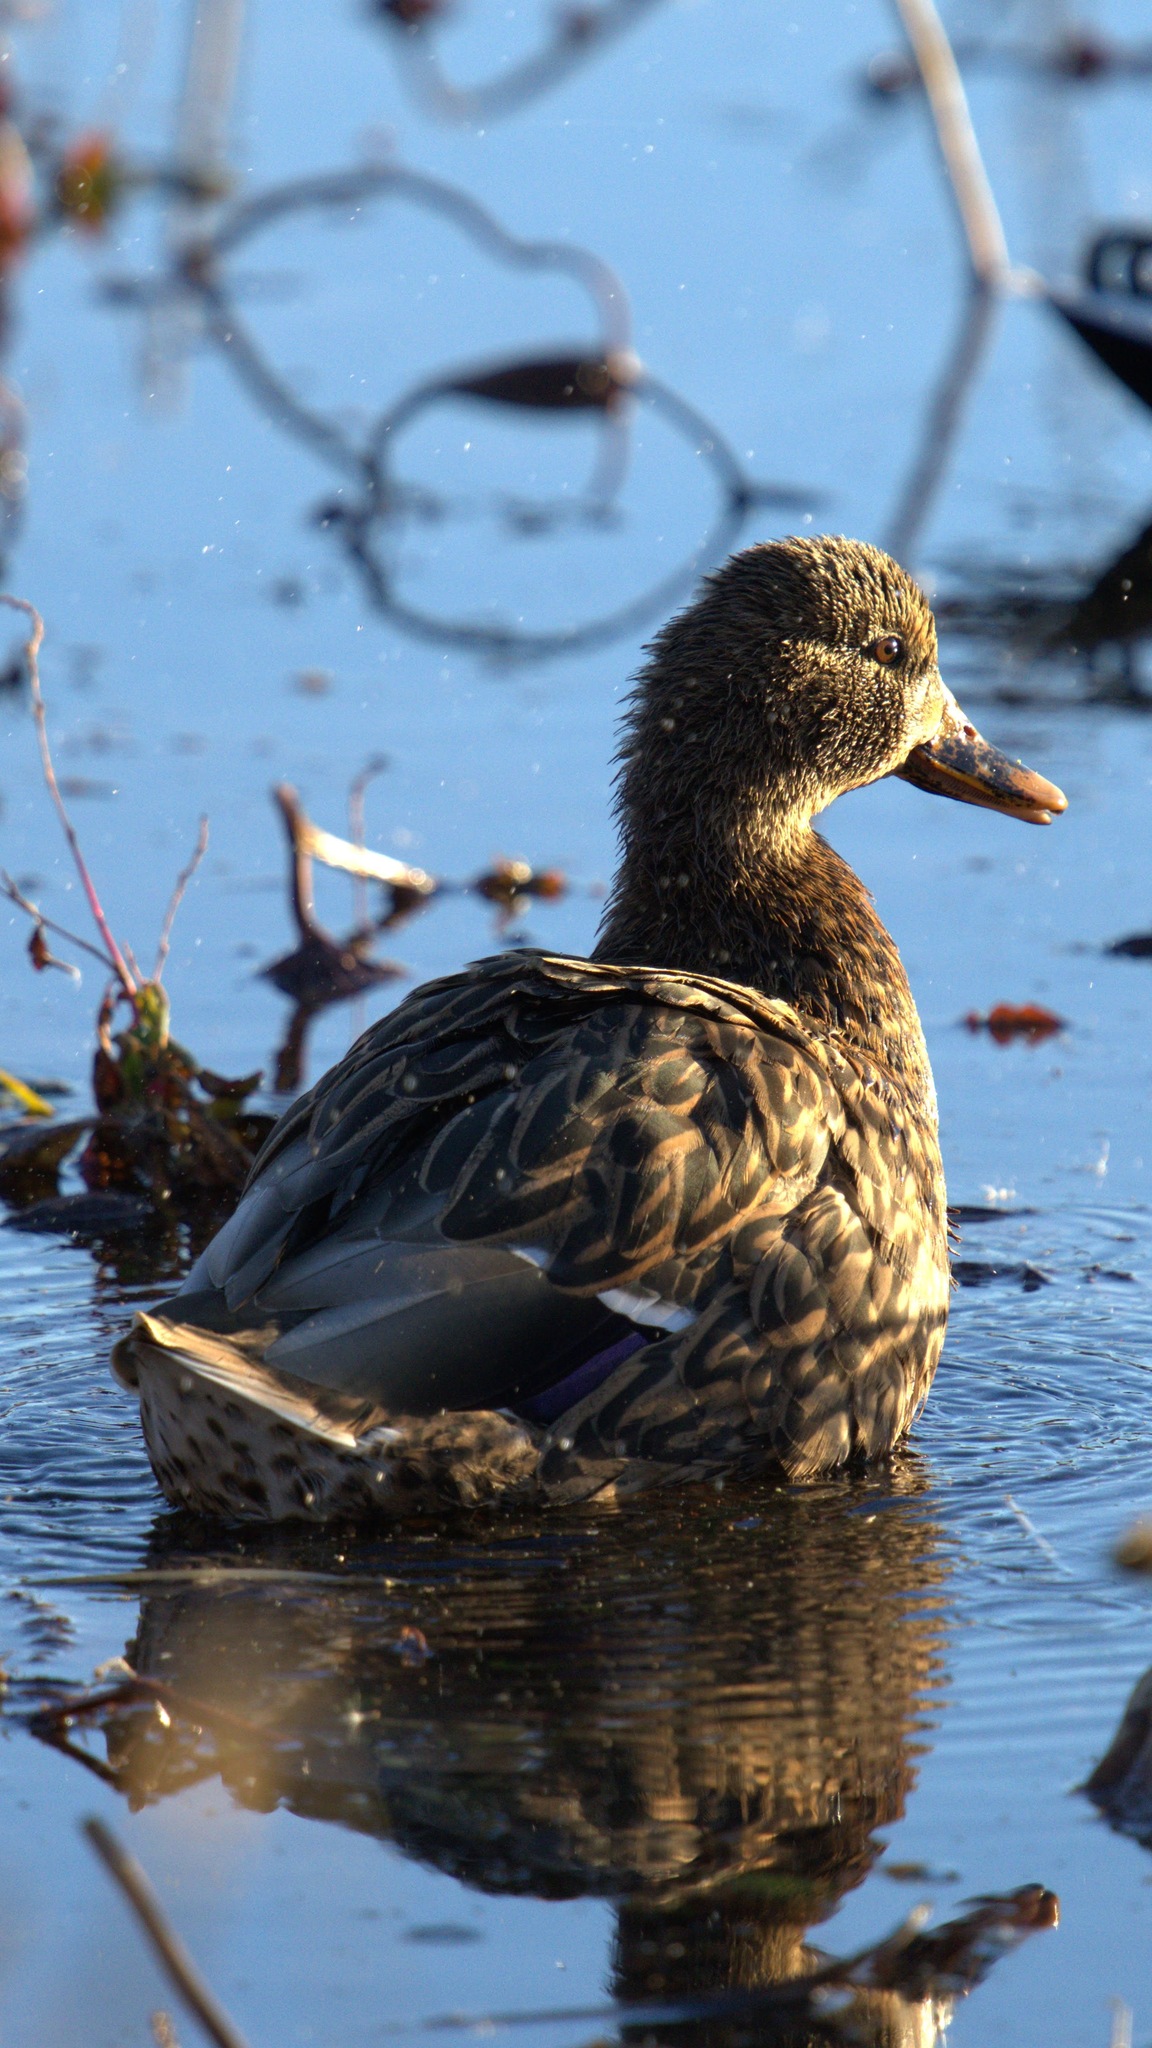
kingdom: Animalia
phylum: Chordata
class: Aves
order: Anseriformes
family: Anatidae
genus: Anas
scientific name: Anas platyrhynchos
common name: Mallard
